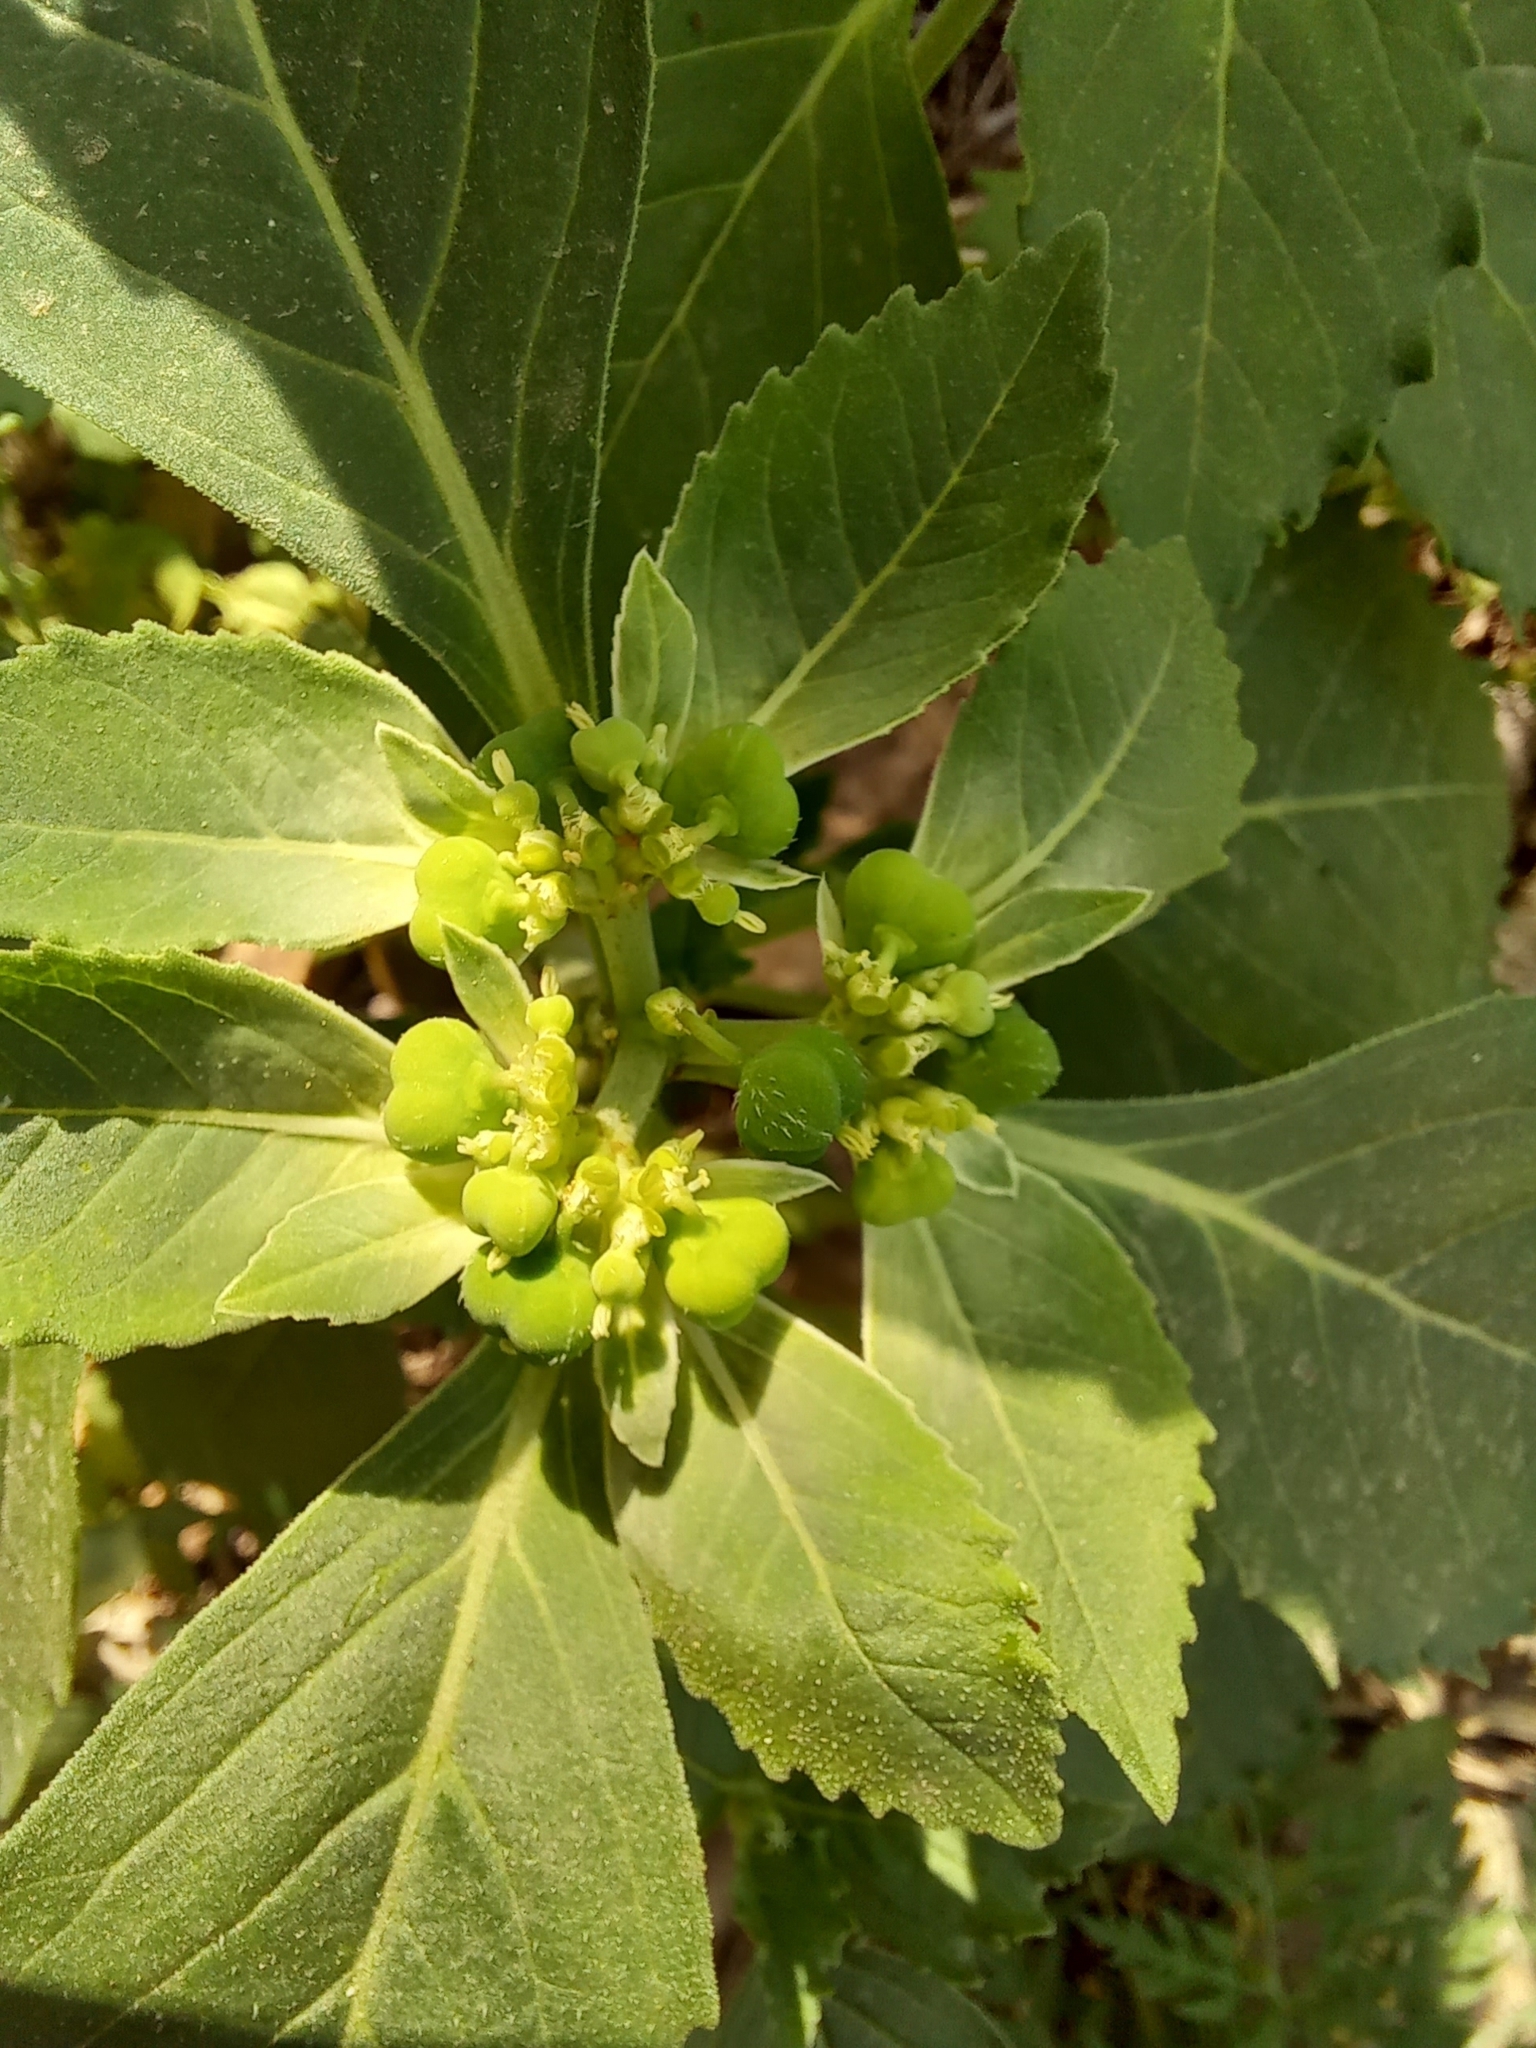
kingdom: Plantae
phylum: Tracheophyta
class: Magnoliopsida
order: Malpighiales
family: Euphorbiaceae
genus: Euphorbia
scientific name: Euphorbia davidii
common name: David's spurge
